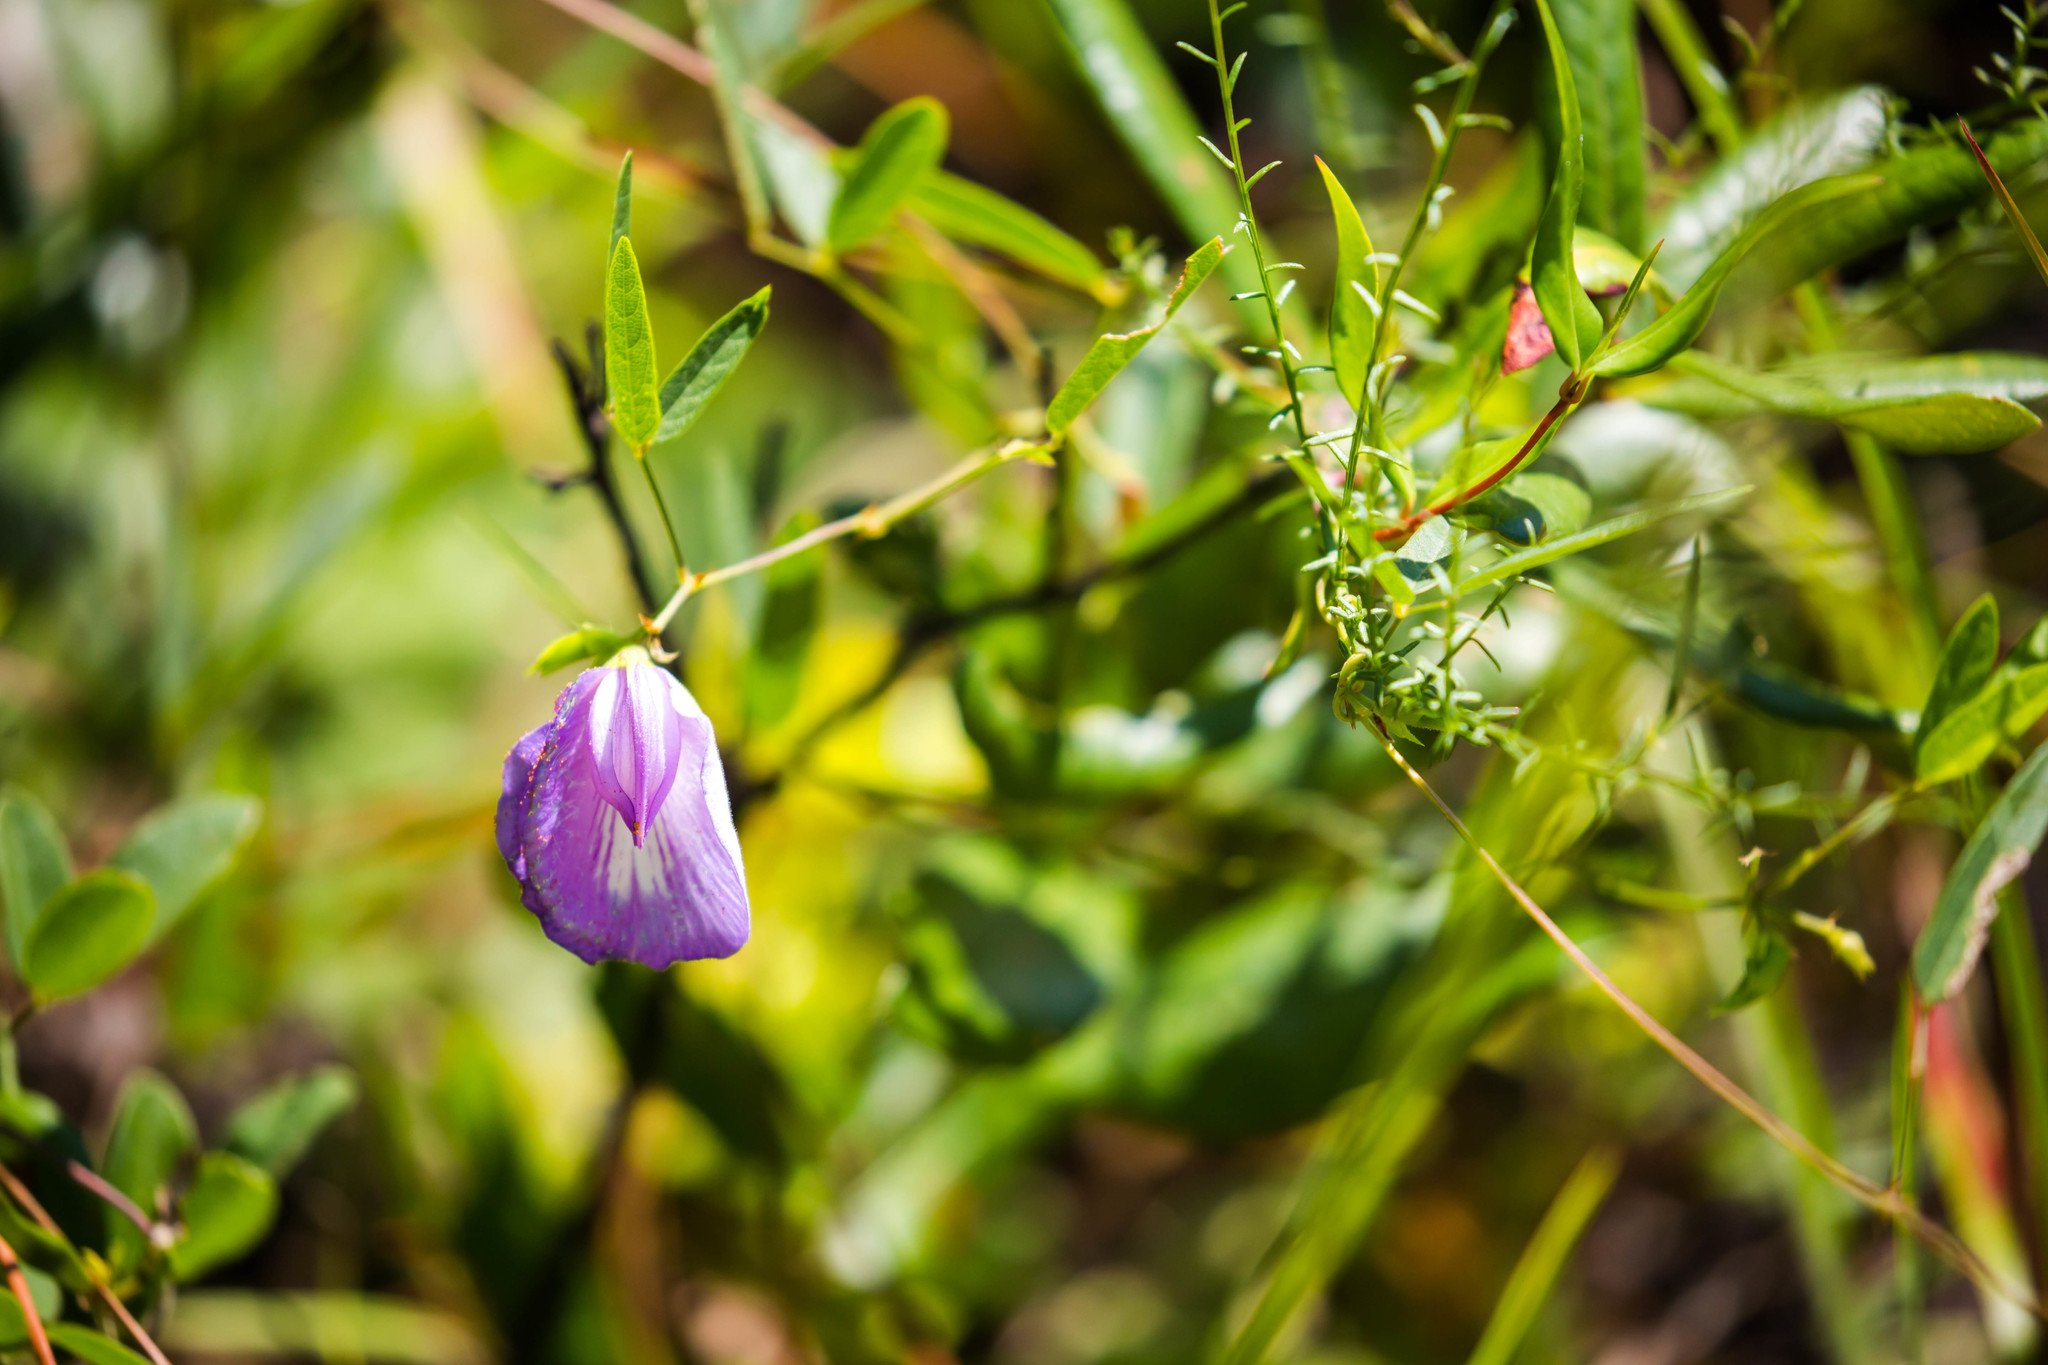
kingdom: Plantae
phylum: Tracheophyta
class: Magnoliopsida
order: Fabales
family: Fabaceae
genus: Centrosema
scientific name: Centrosema virginianum
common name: Butterfly-pea
